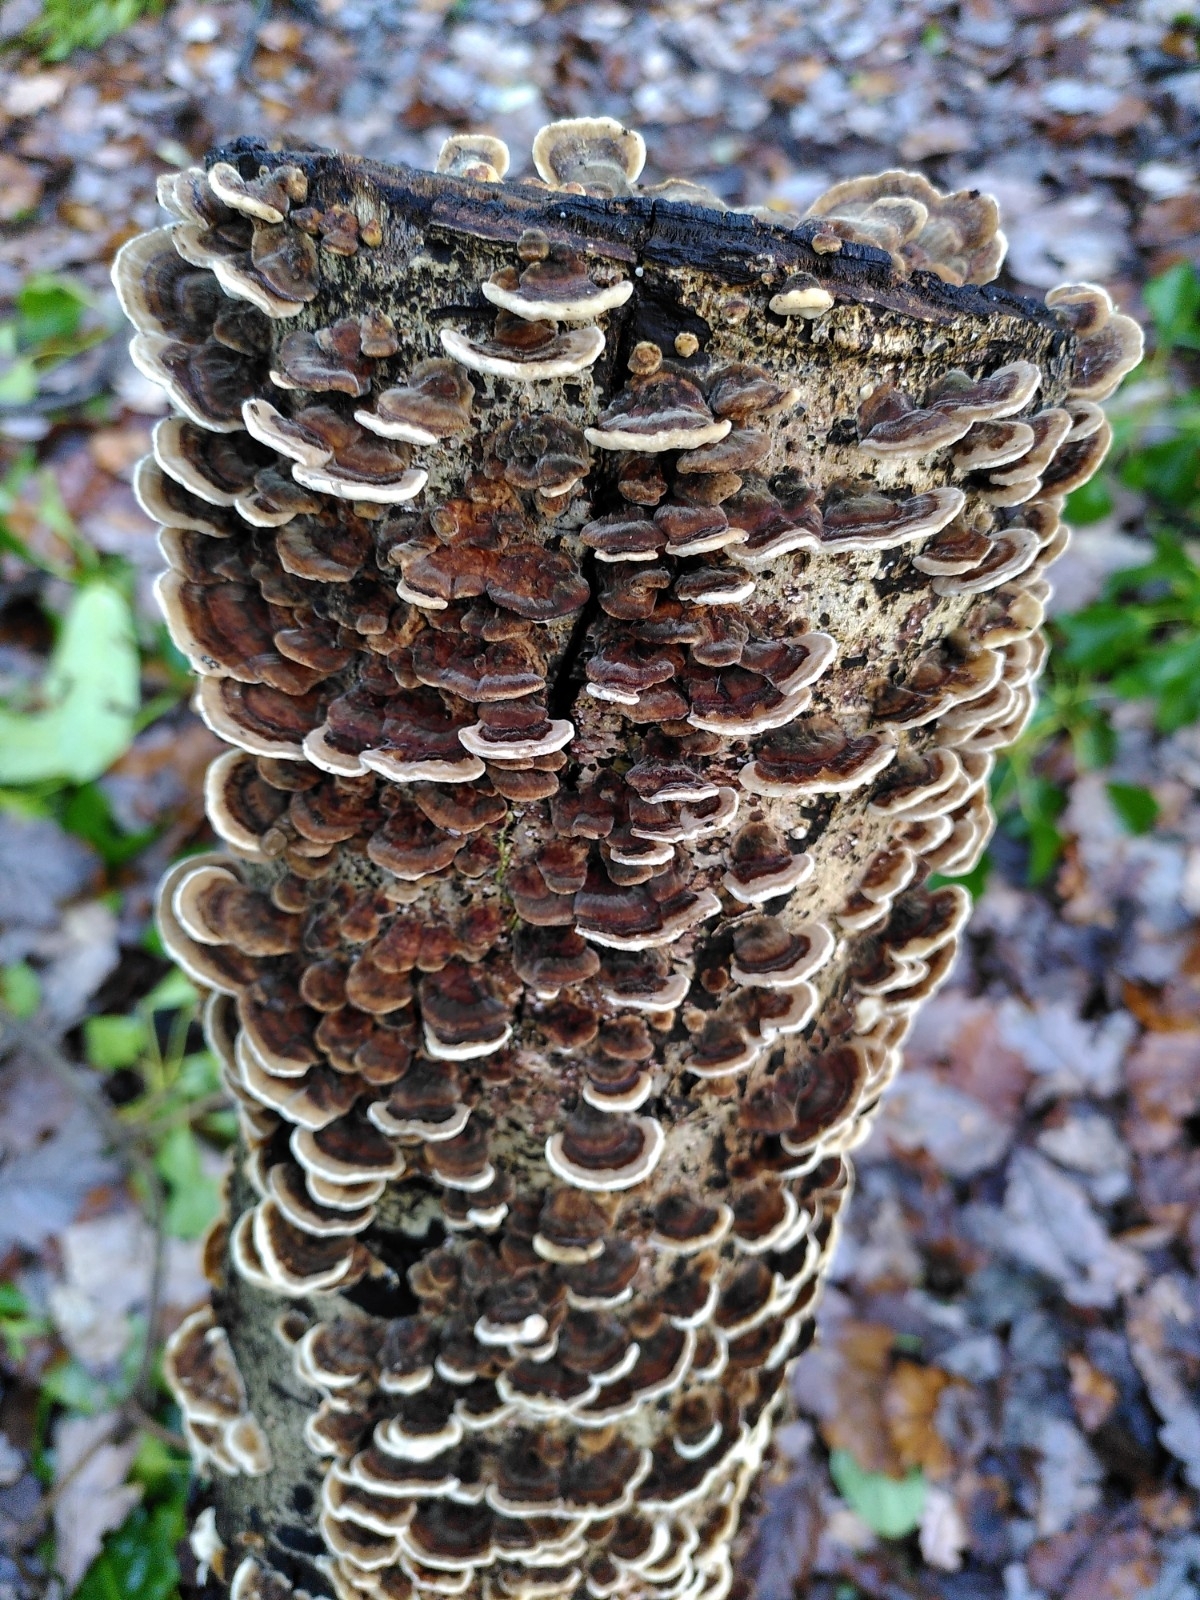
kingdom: Fungi
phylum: Basidiomycota
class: Agaricomycetes
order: Polyporales
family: Polyporaceae
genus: Trametes
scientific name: Trametes versicolor
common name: Turkeytail
